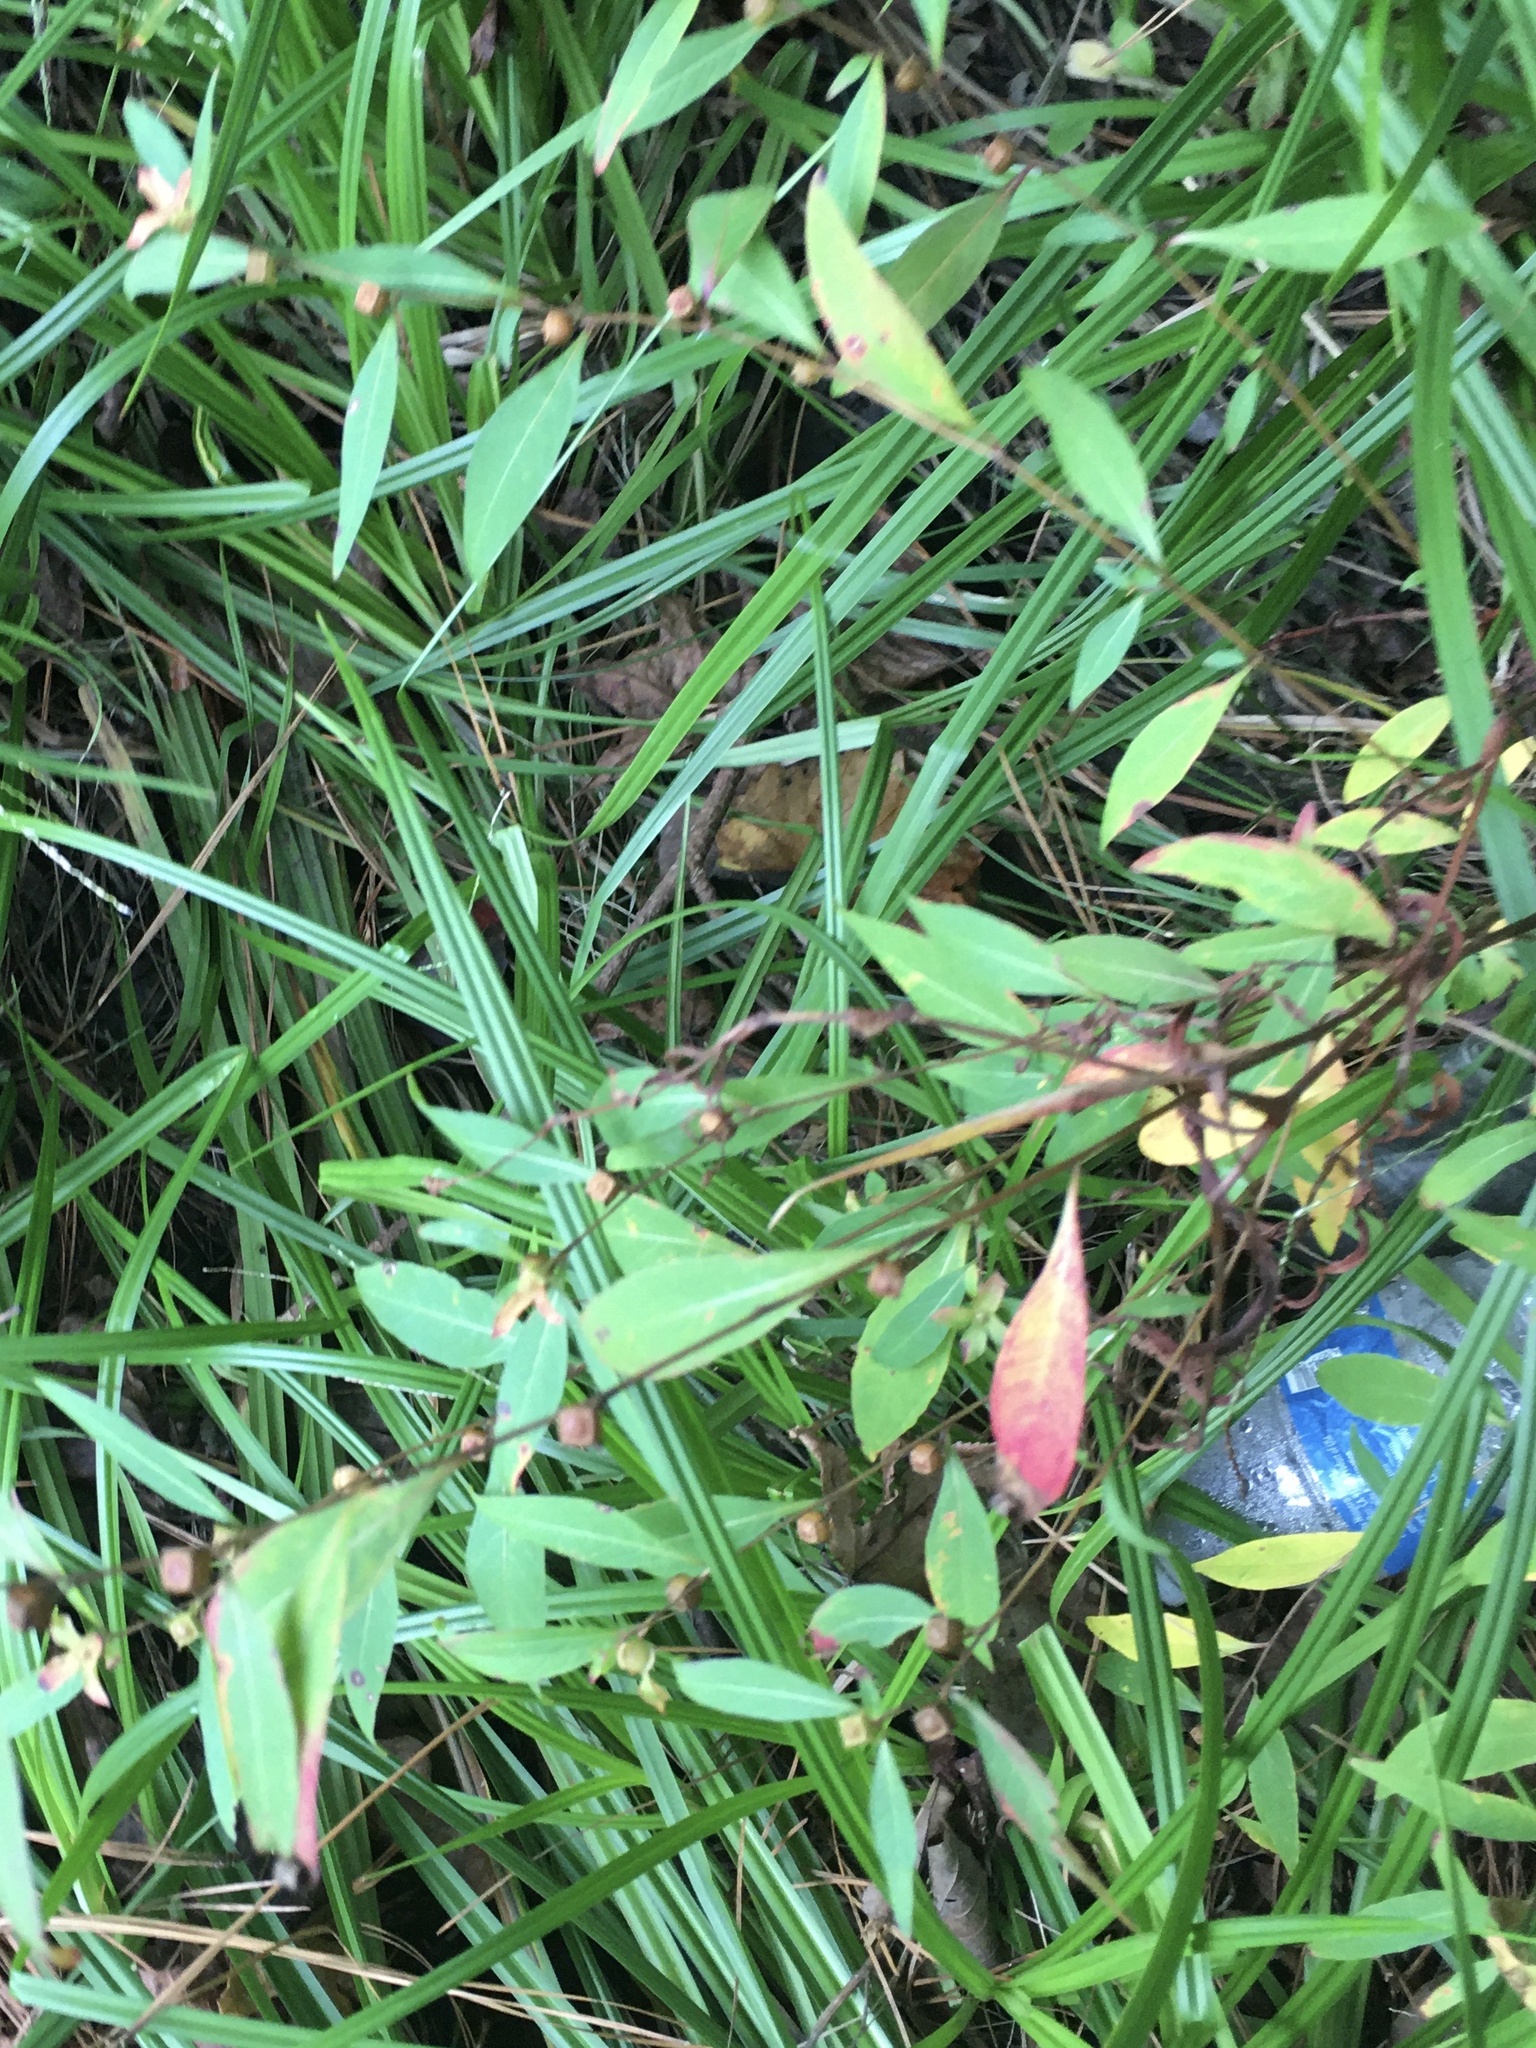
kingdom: Plantae
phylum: Tracheophyta
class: Magnoliopsida
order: Myrtales
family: Onagraceae
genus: Ludwigia
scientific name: Ludwigia alternifolia
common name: Rattlebox
